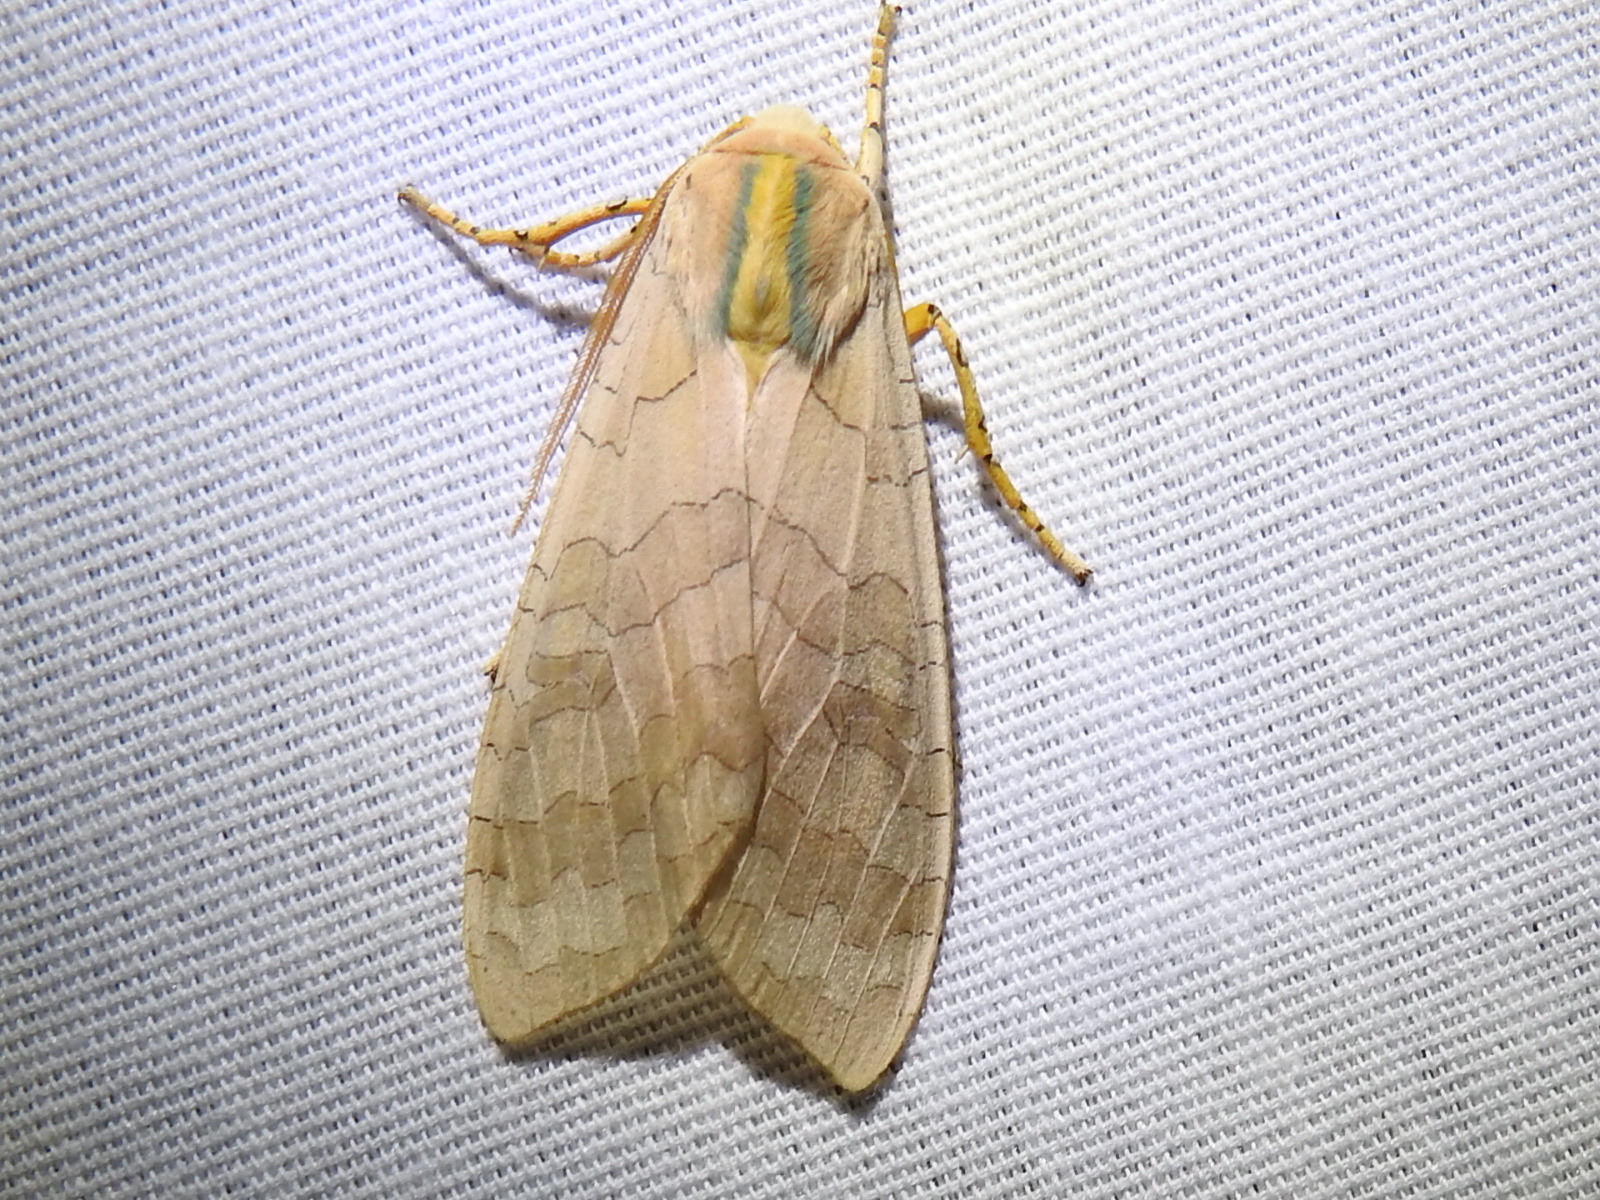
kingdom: Animalia
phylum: Arthropoda
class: Insecta
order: Lepidoptera
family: Erebidae
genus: Halysidota
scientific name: Halysidota tessellaris
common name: Banded tussock moth
